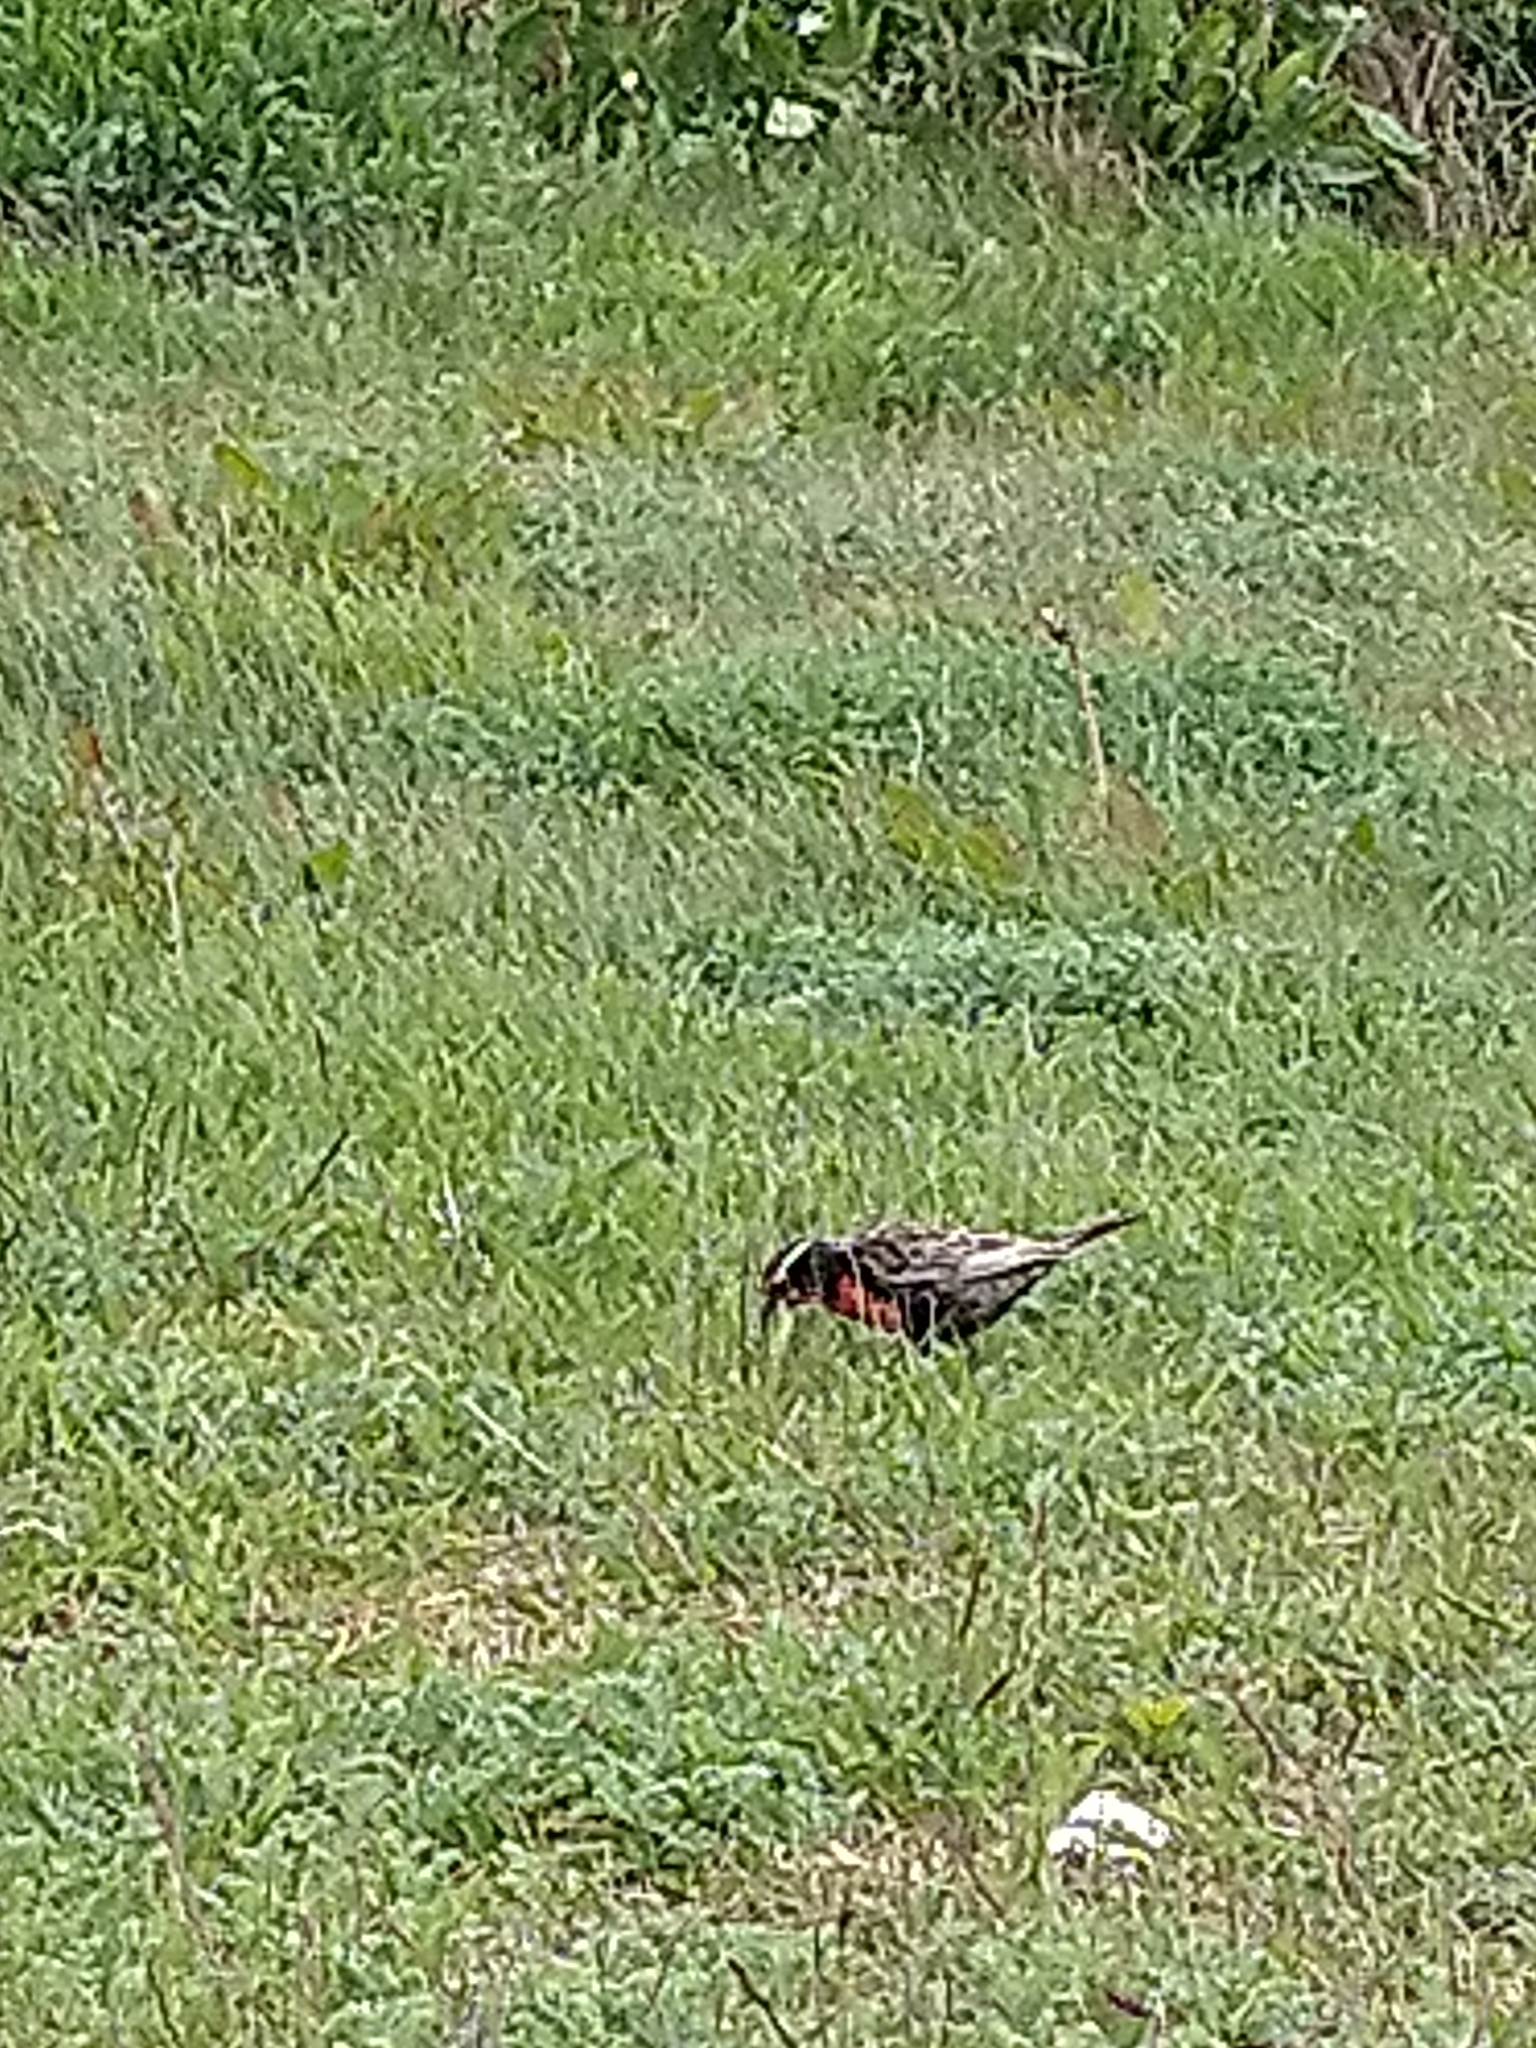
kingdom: Animalia
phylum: Chordata
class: Aves
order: Passeriformes
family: Icteridae
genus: Sturnella
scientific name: Sturnella loyca
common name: Long-tailed meadowlark
